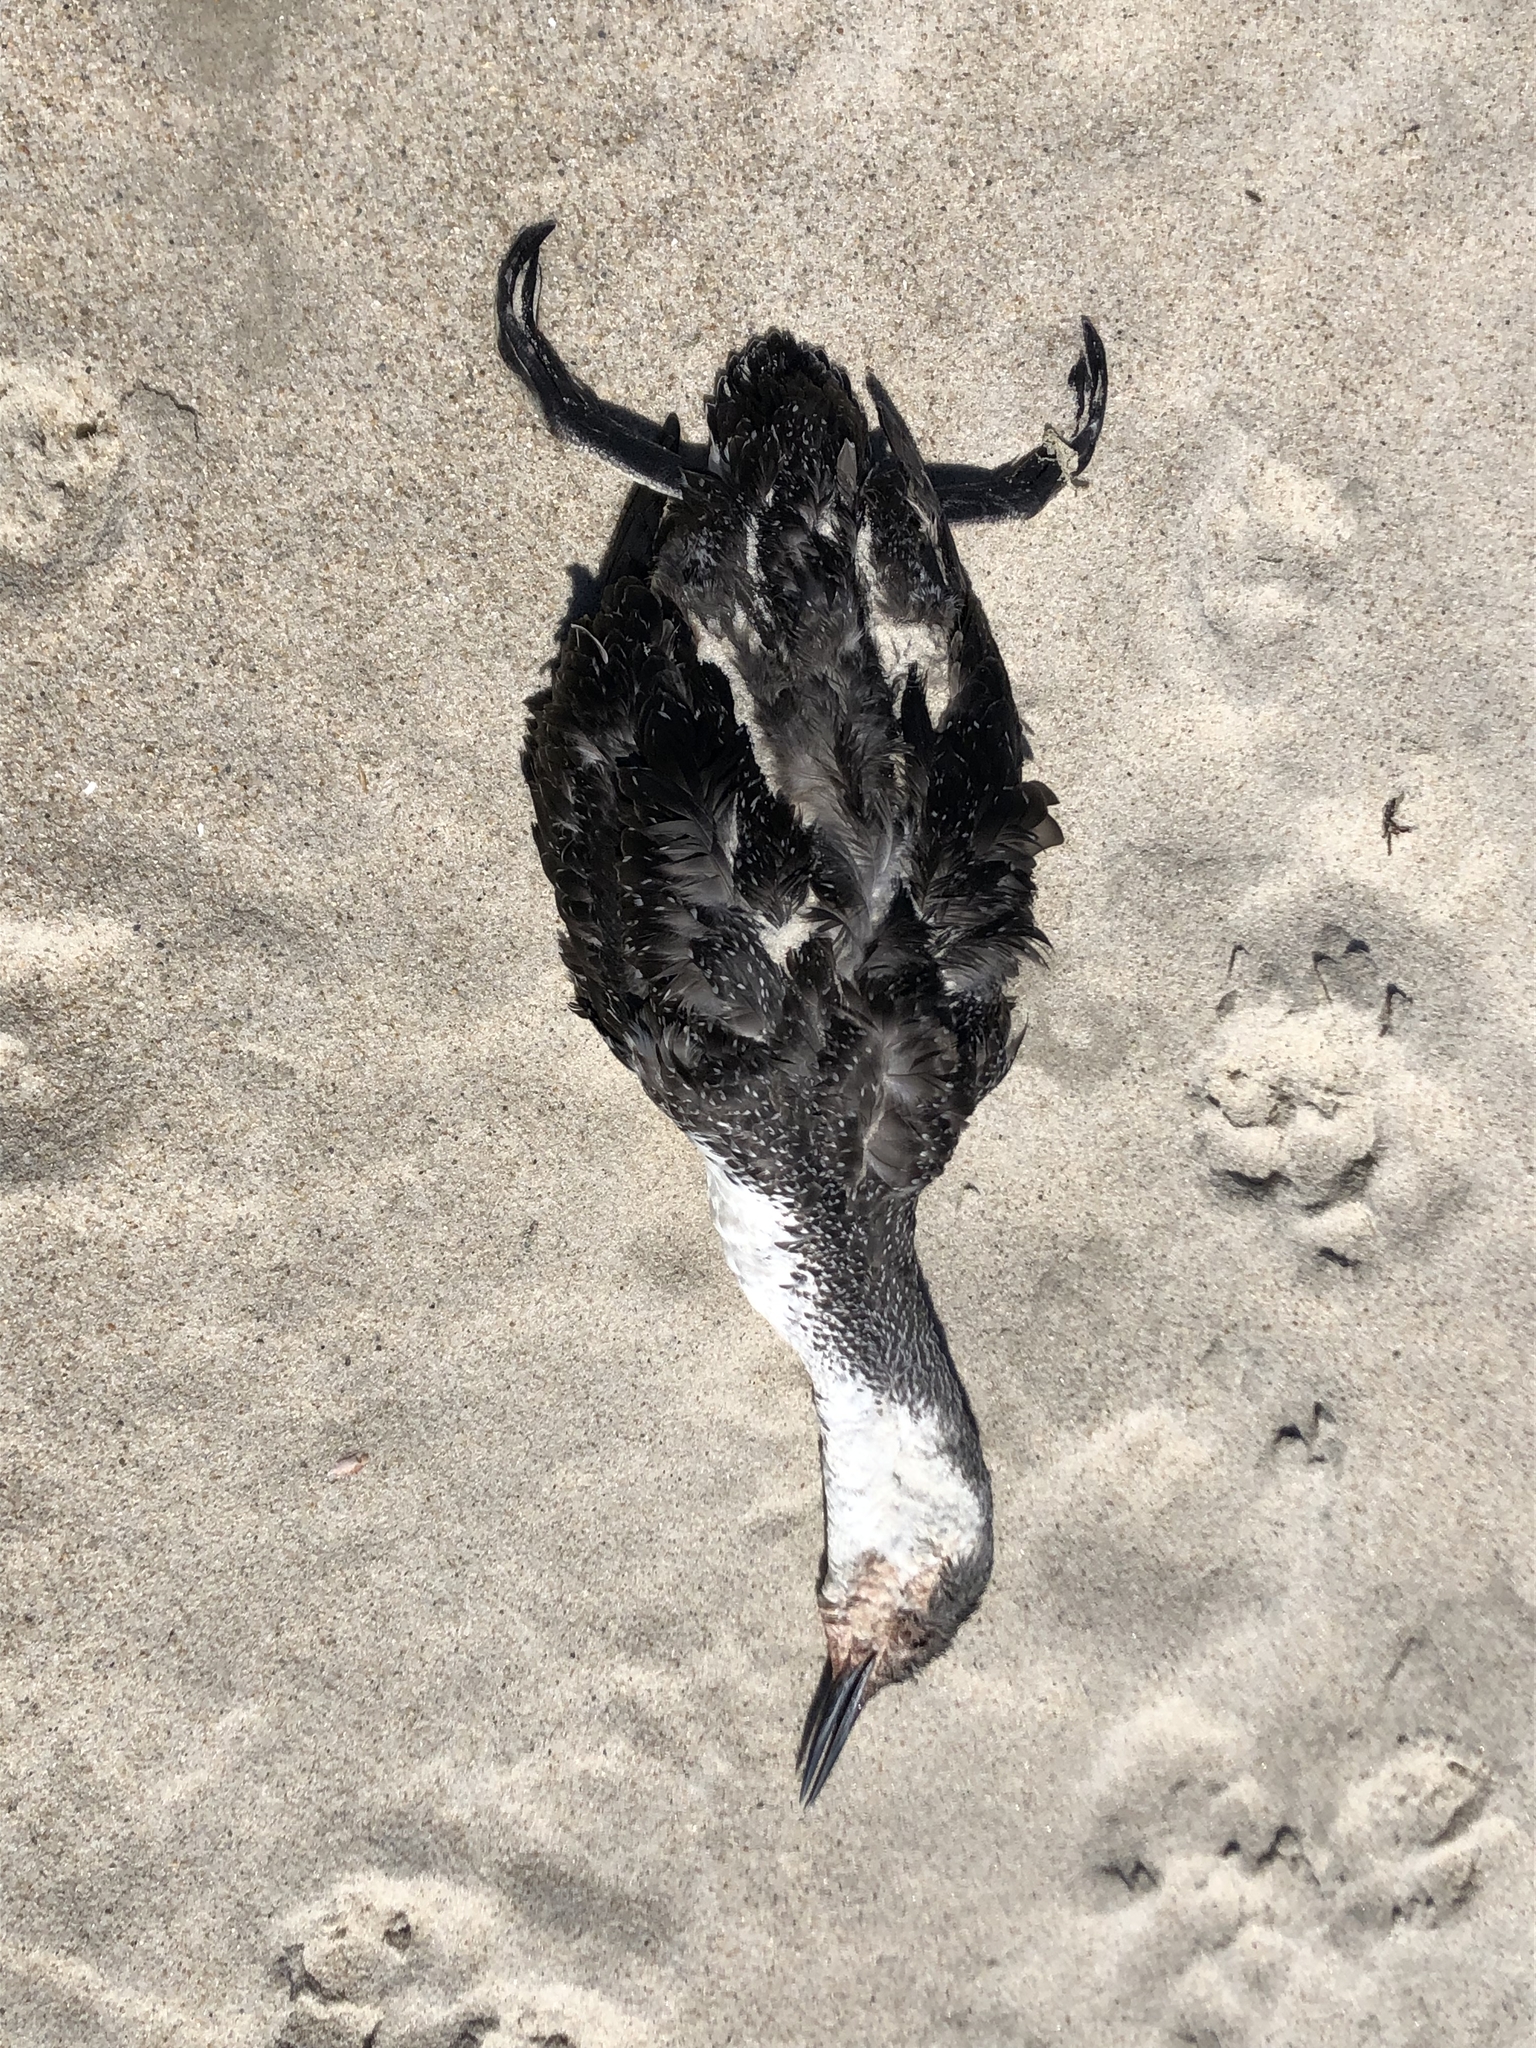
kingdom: Animalia
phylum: Chordata
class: Aves
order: Gaviiformes
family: Gaviidae
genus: Gavia
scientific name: Gavia stellata
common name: Red-throated loon
